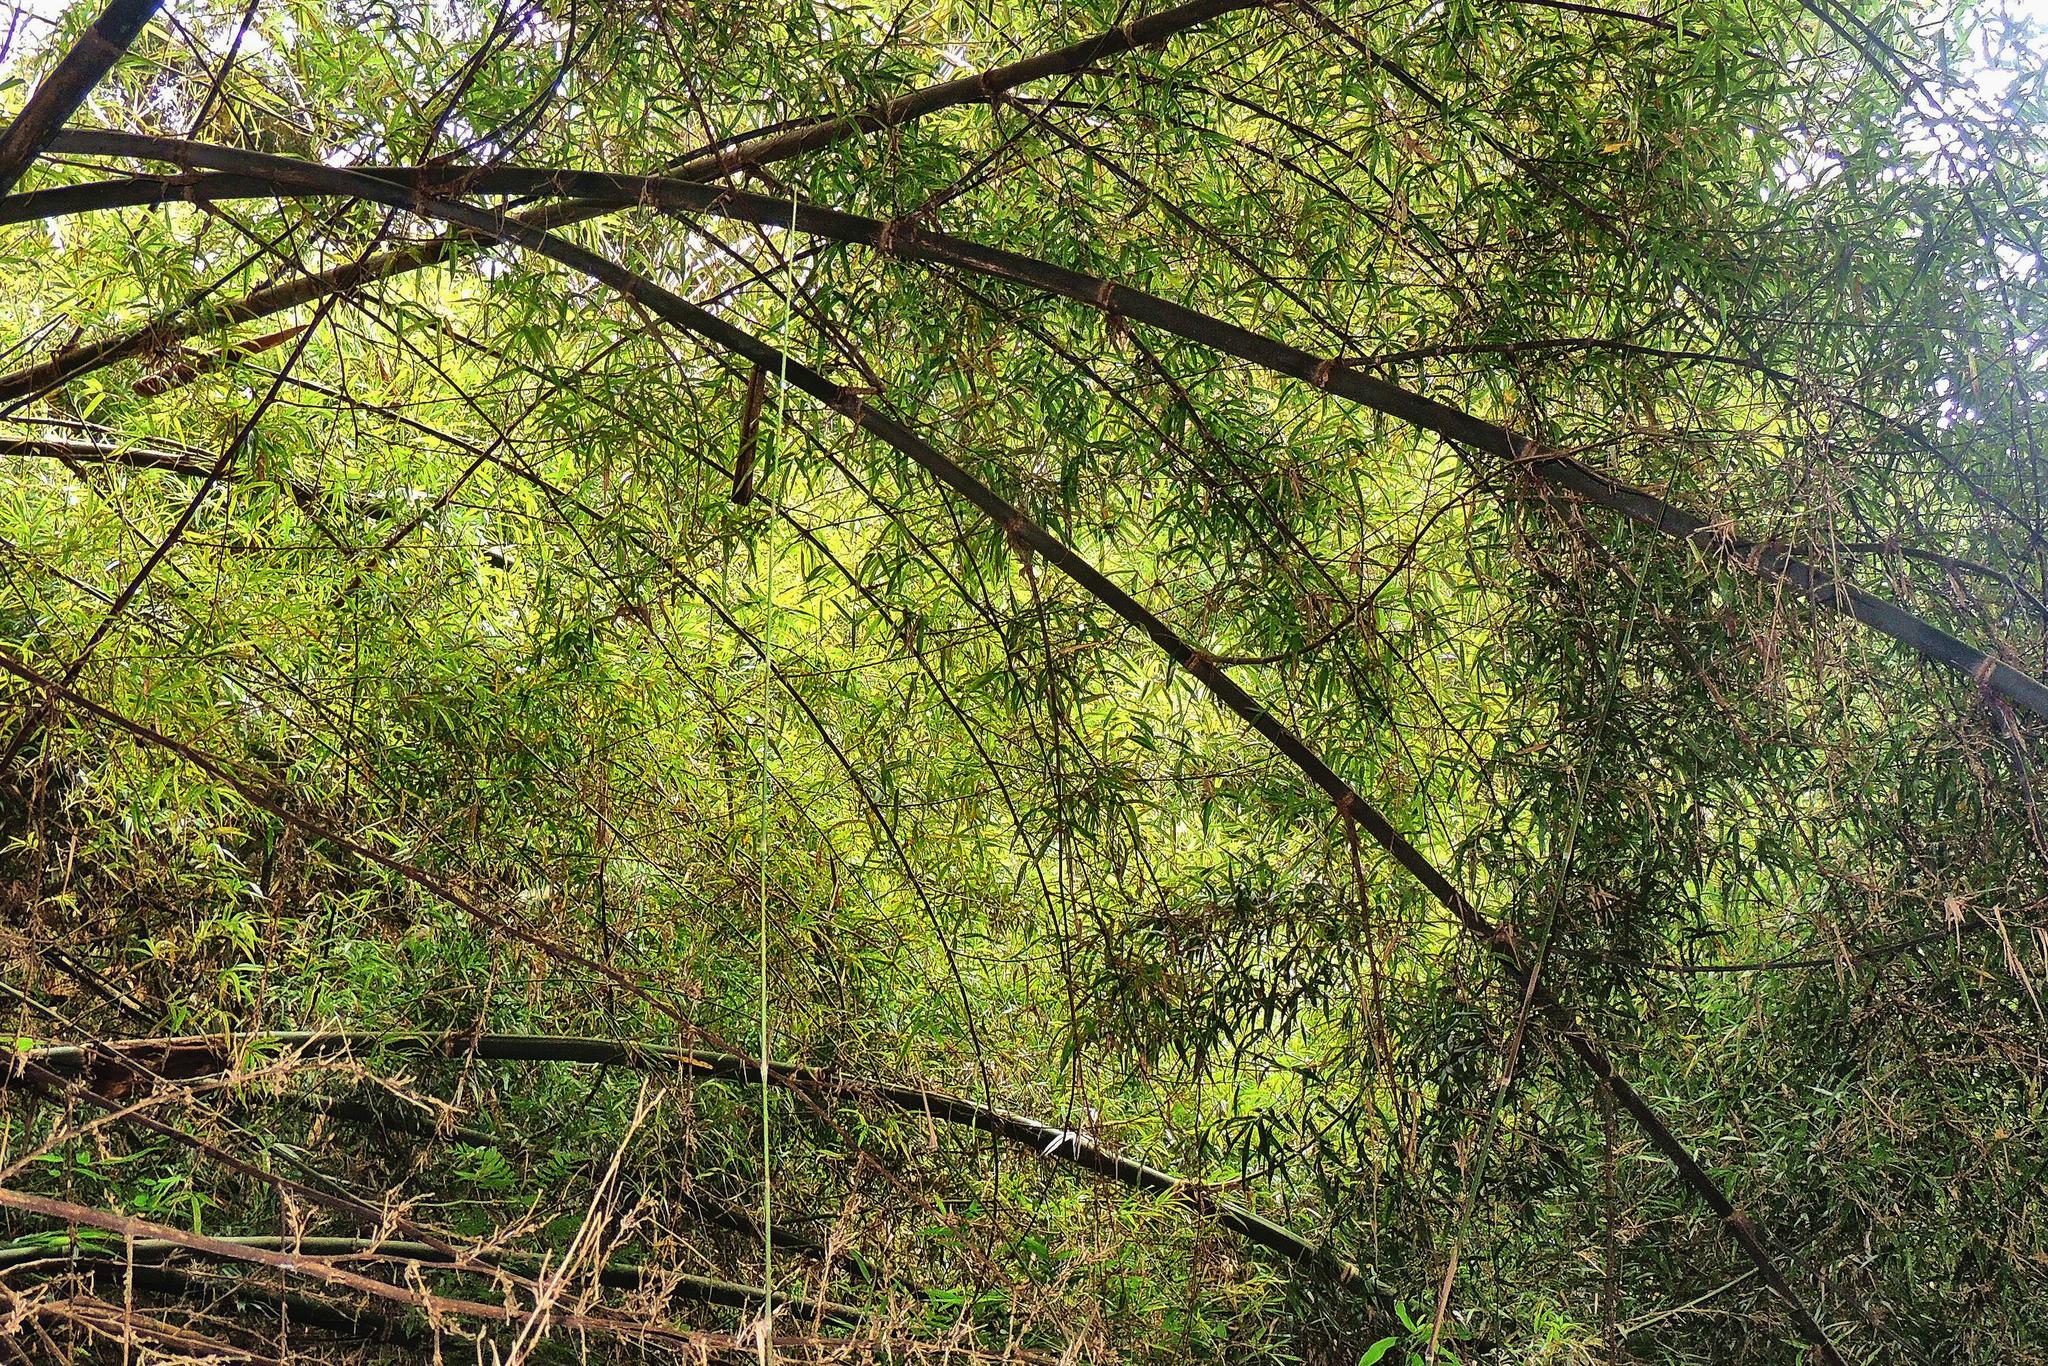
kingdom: Plantae
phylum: Tracheophyta
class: Liliopsida
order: Poales
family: Poaceae
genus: Guadua
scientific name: Guadua trinii
